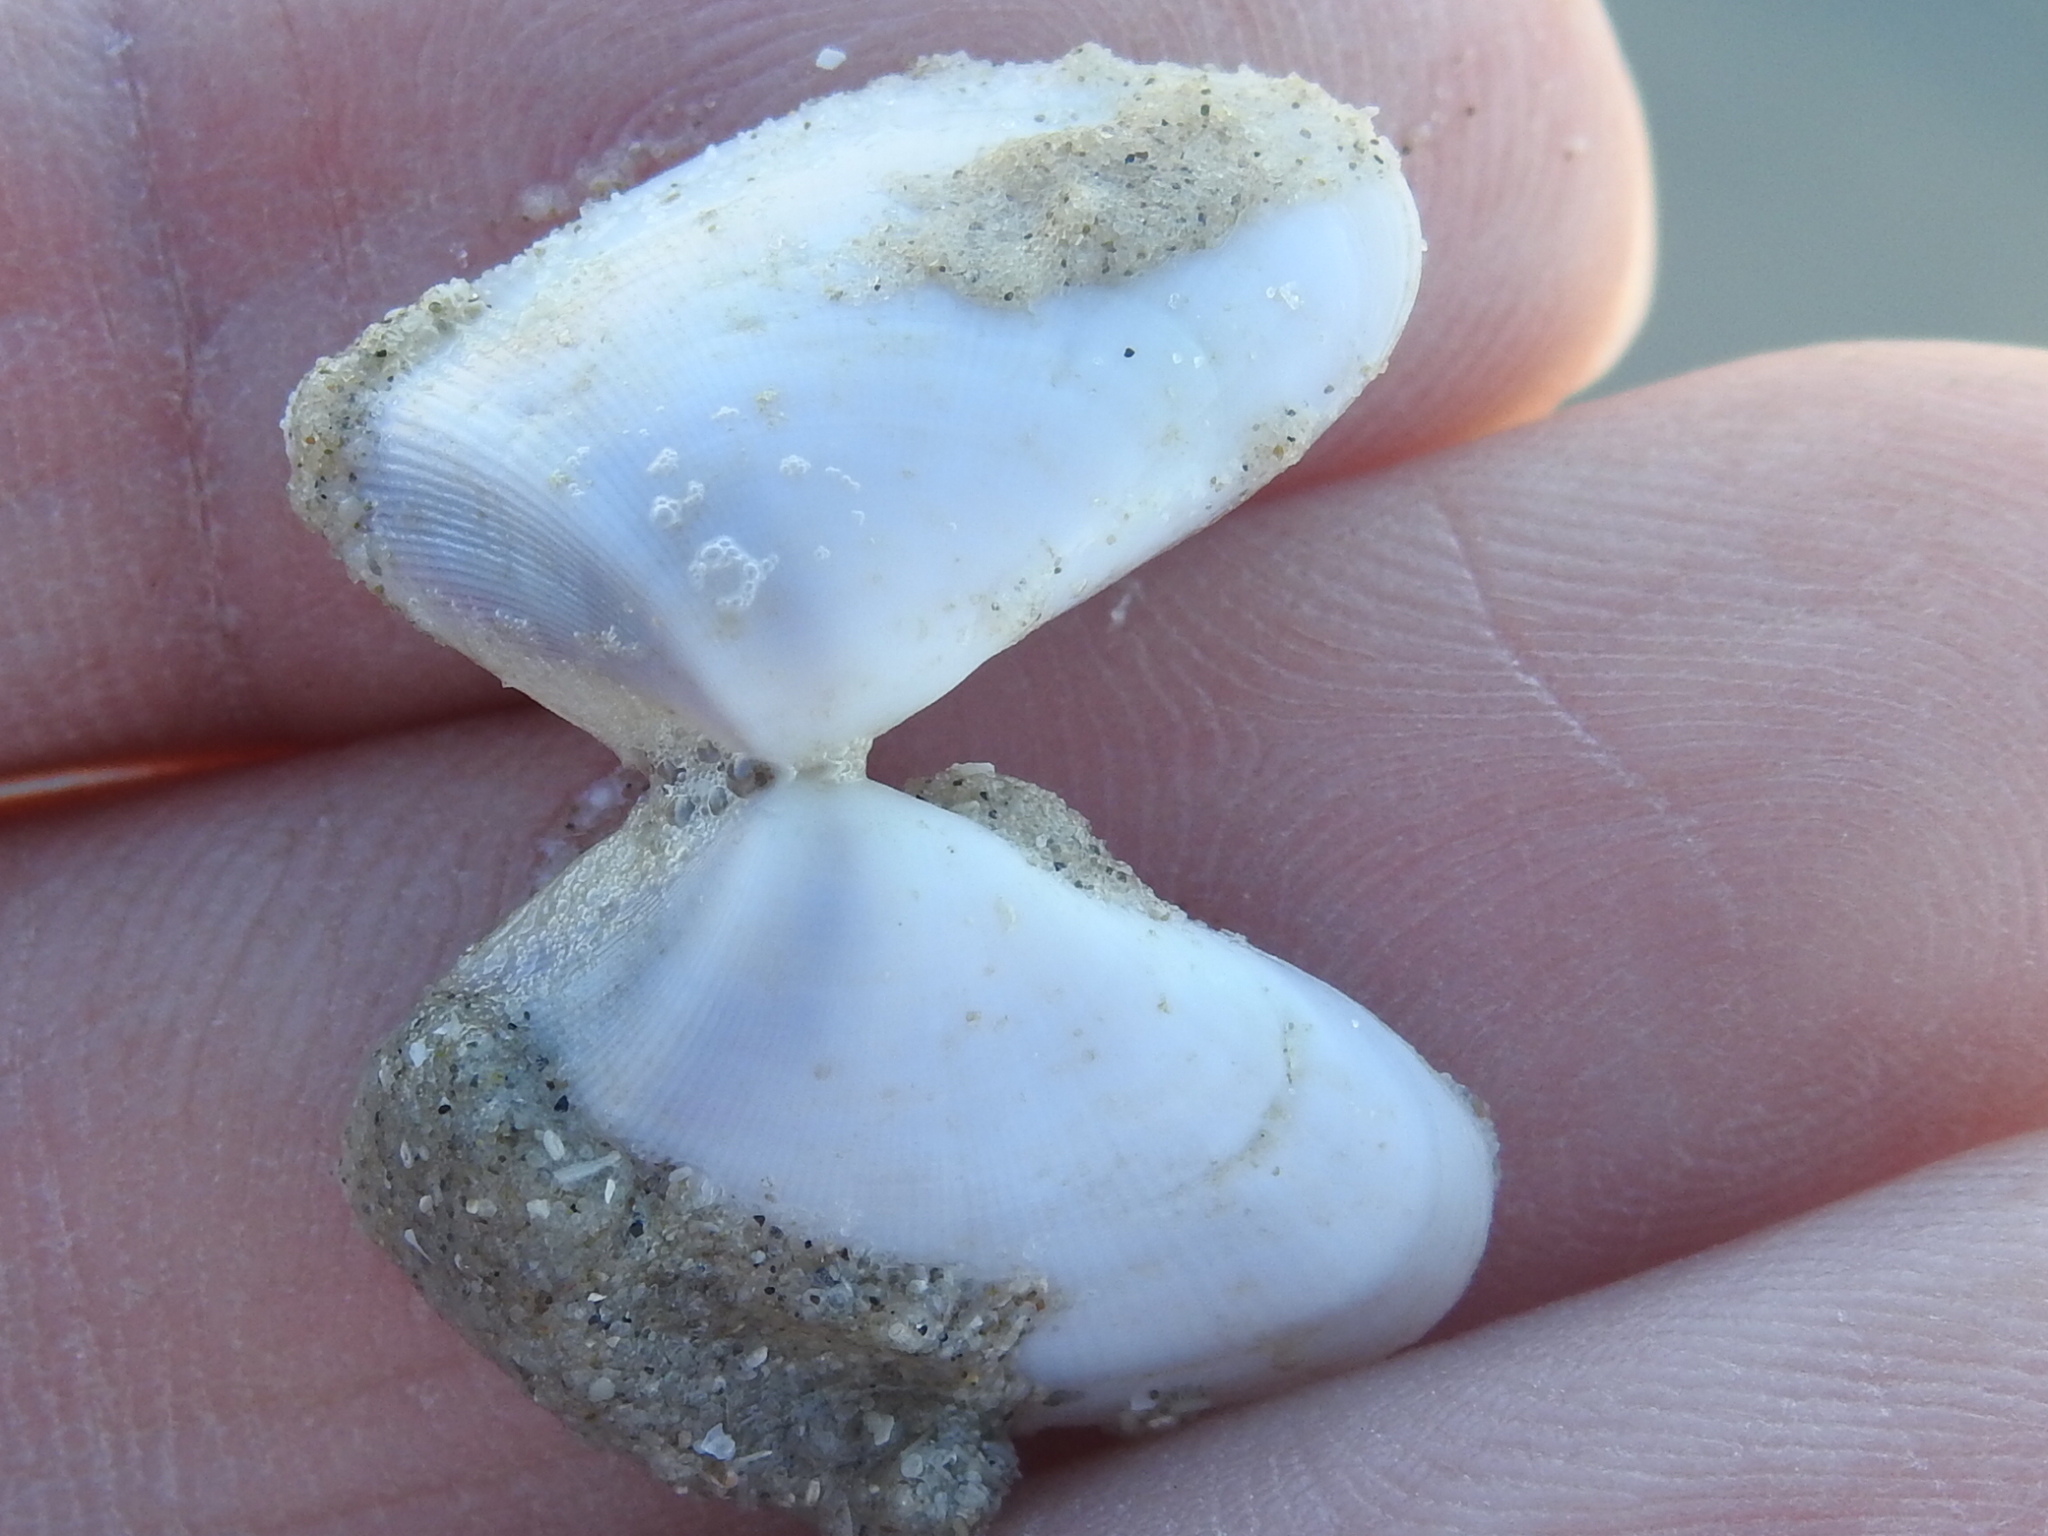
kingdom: Animalia
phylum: Mollusca
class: Bivalvia
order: Cardiida
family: Donacidae
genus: Donax
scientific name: Donax variabilis
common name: Butterfly shell
